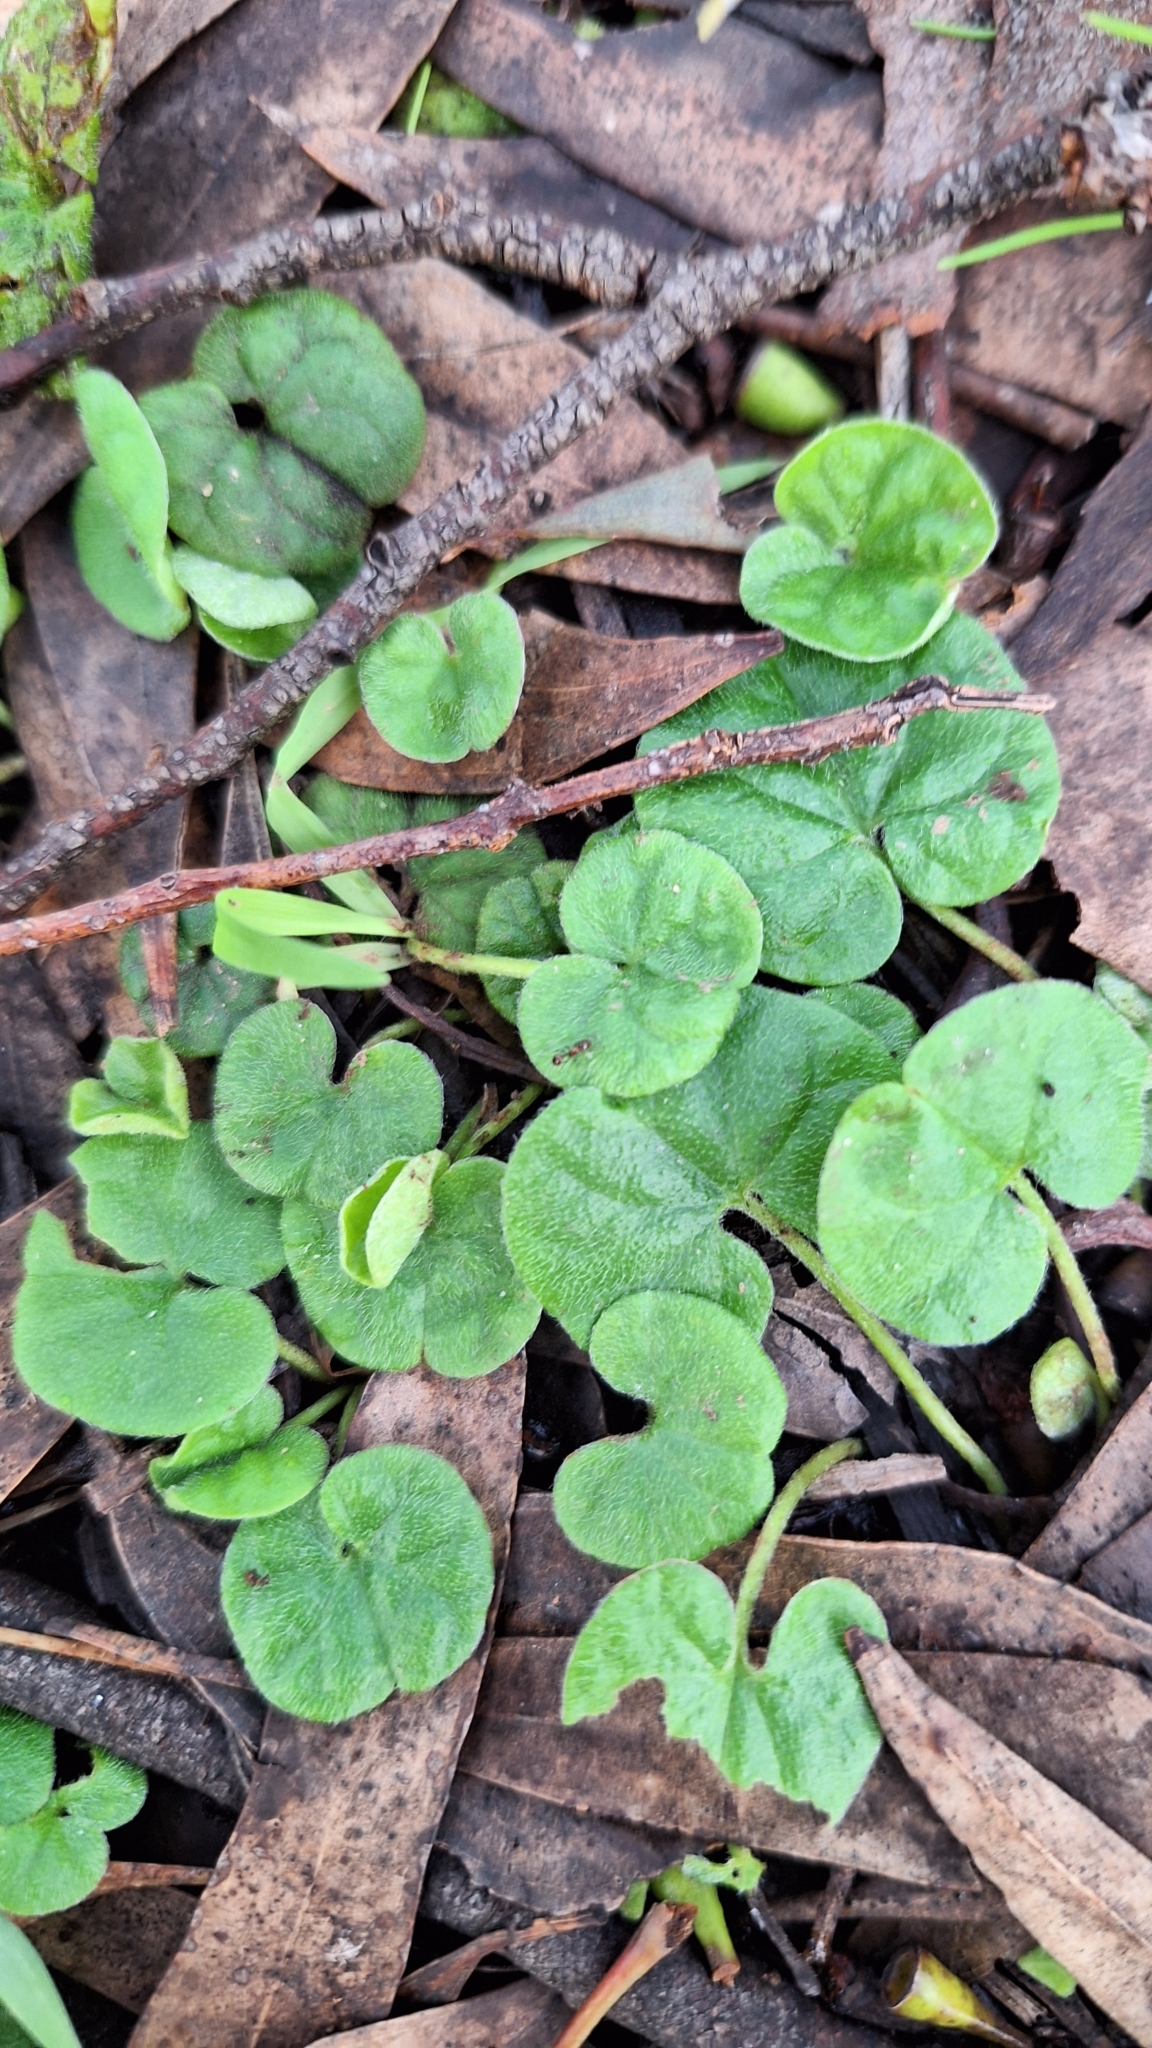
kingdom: Plantae
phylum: Tracheophyta
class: Magnoliopsida
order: Solanales
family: Convolvulaceae
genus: Dichondra
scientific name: Dichondra repens
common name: Kidneyweed
